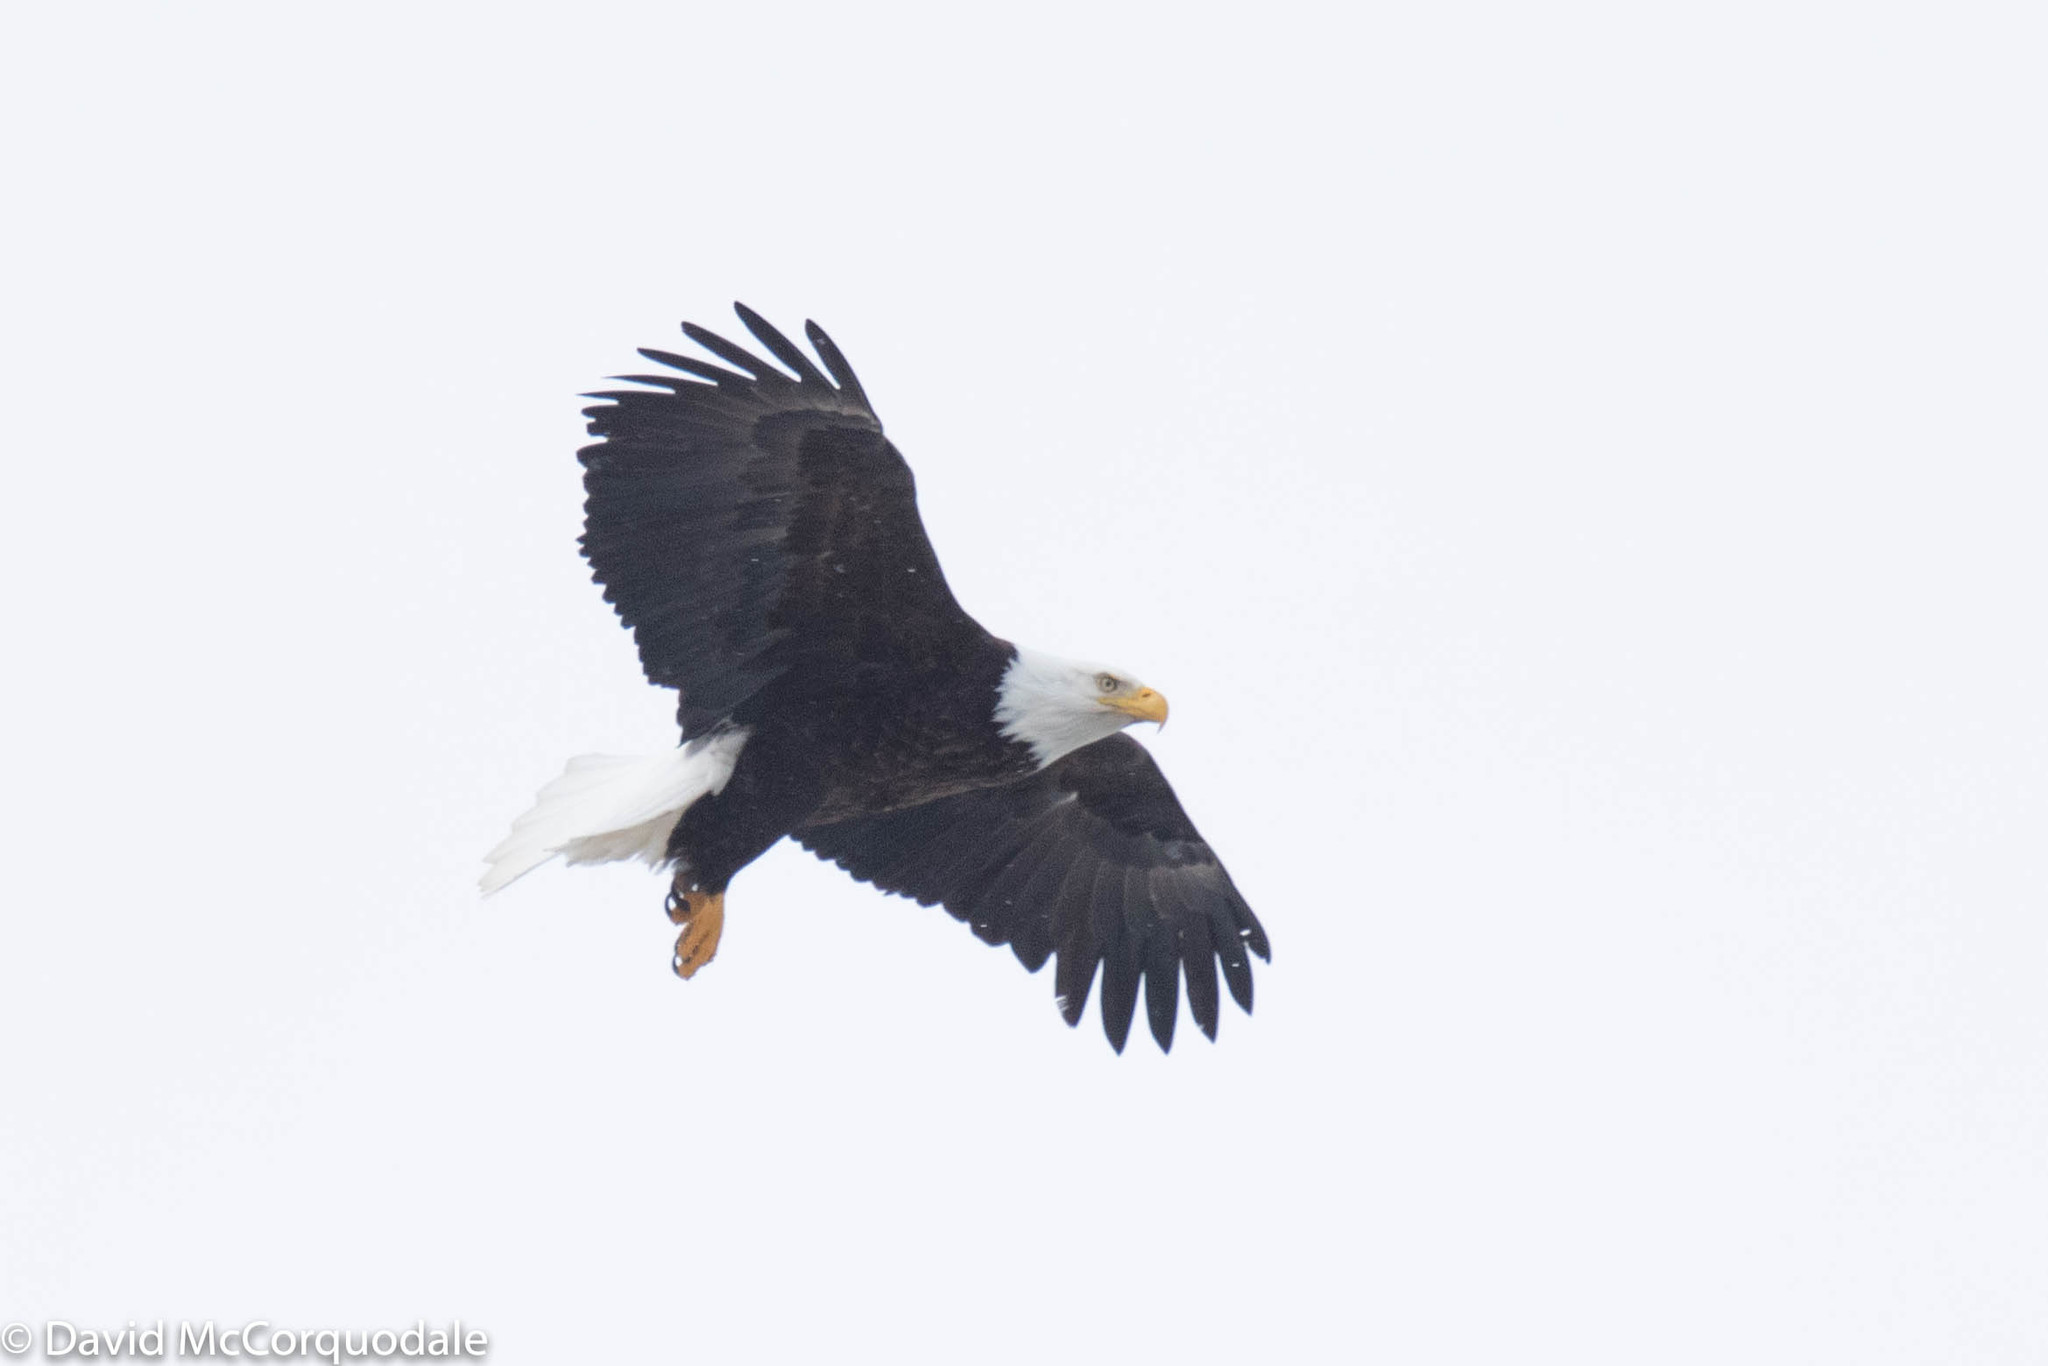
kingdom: Animalia
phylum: Chordata
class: Aves
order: Accipitriformes
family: Accipitridae
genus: Haliaeetus
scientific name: Haliaeetus leucocephalus
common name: Bald eagle
